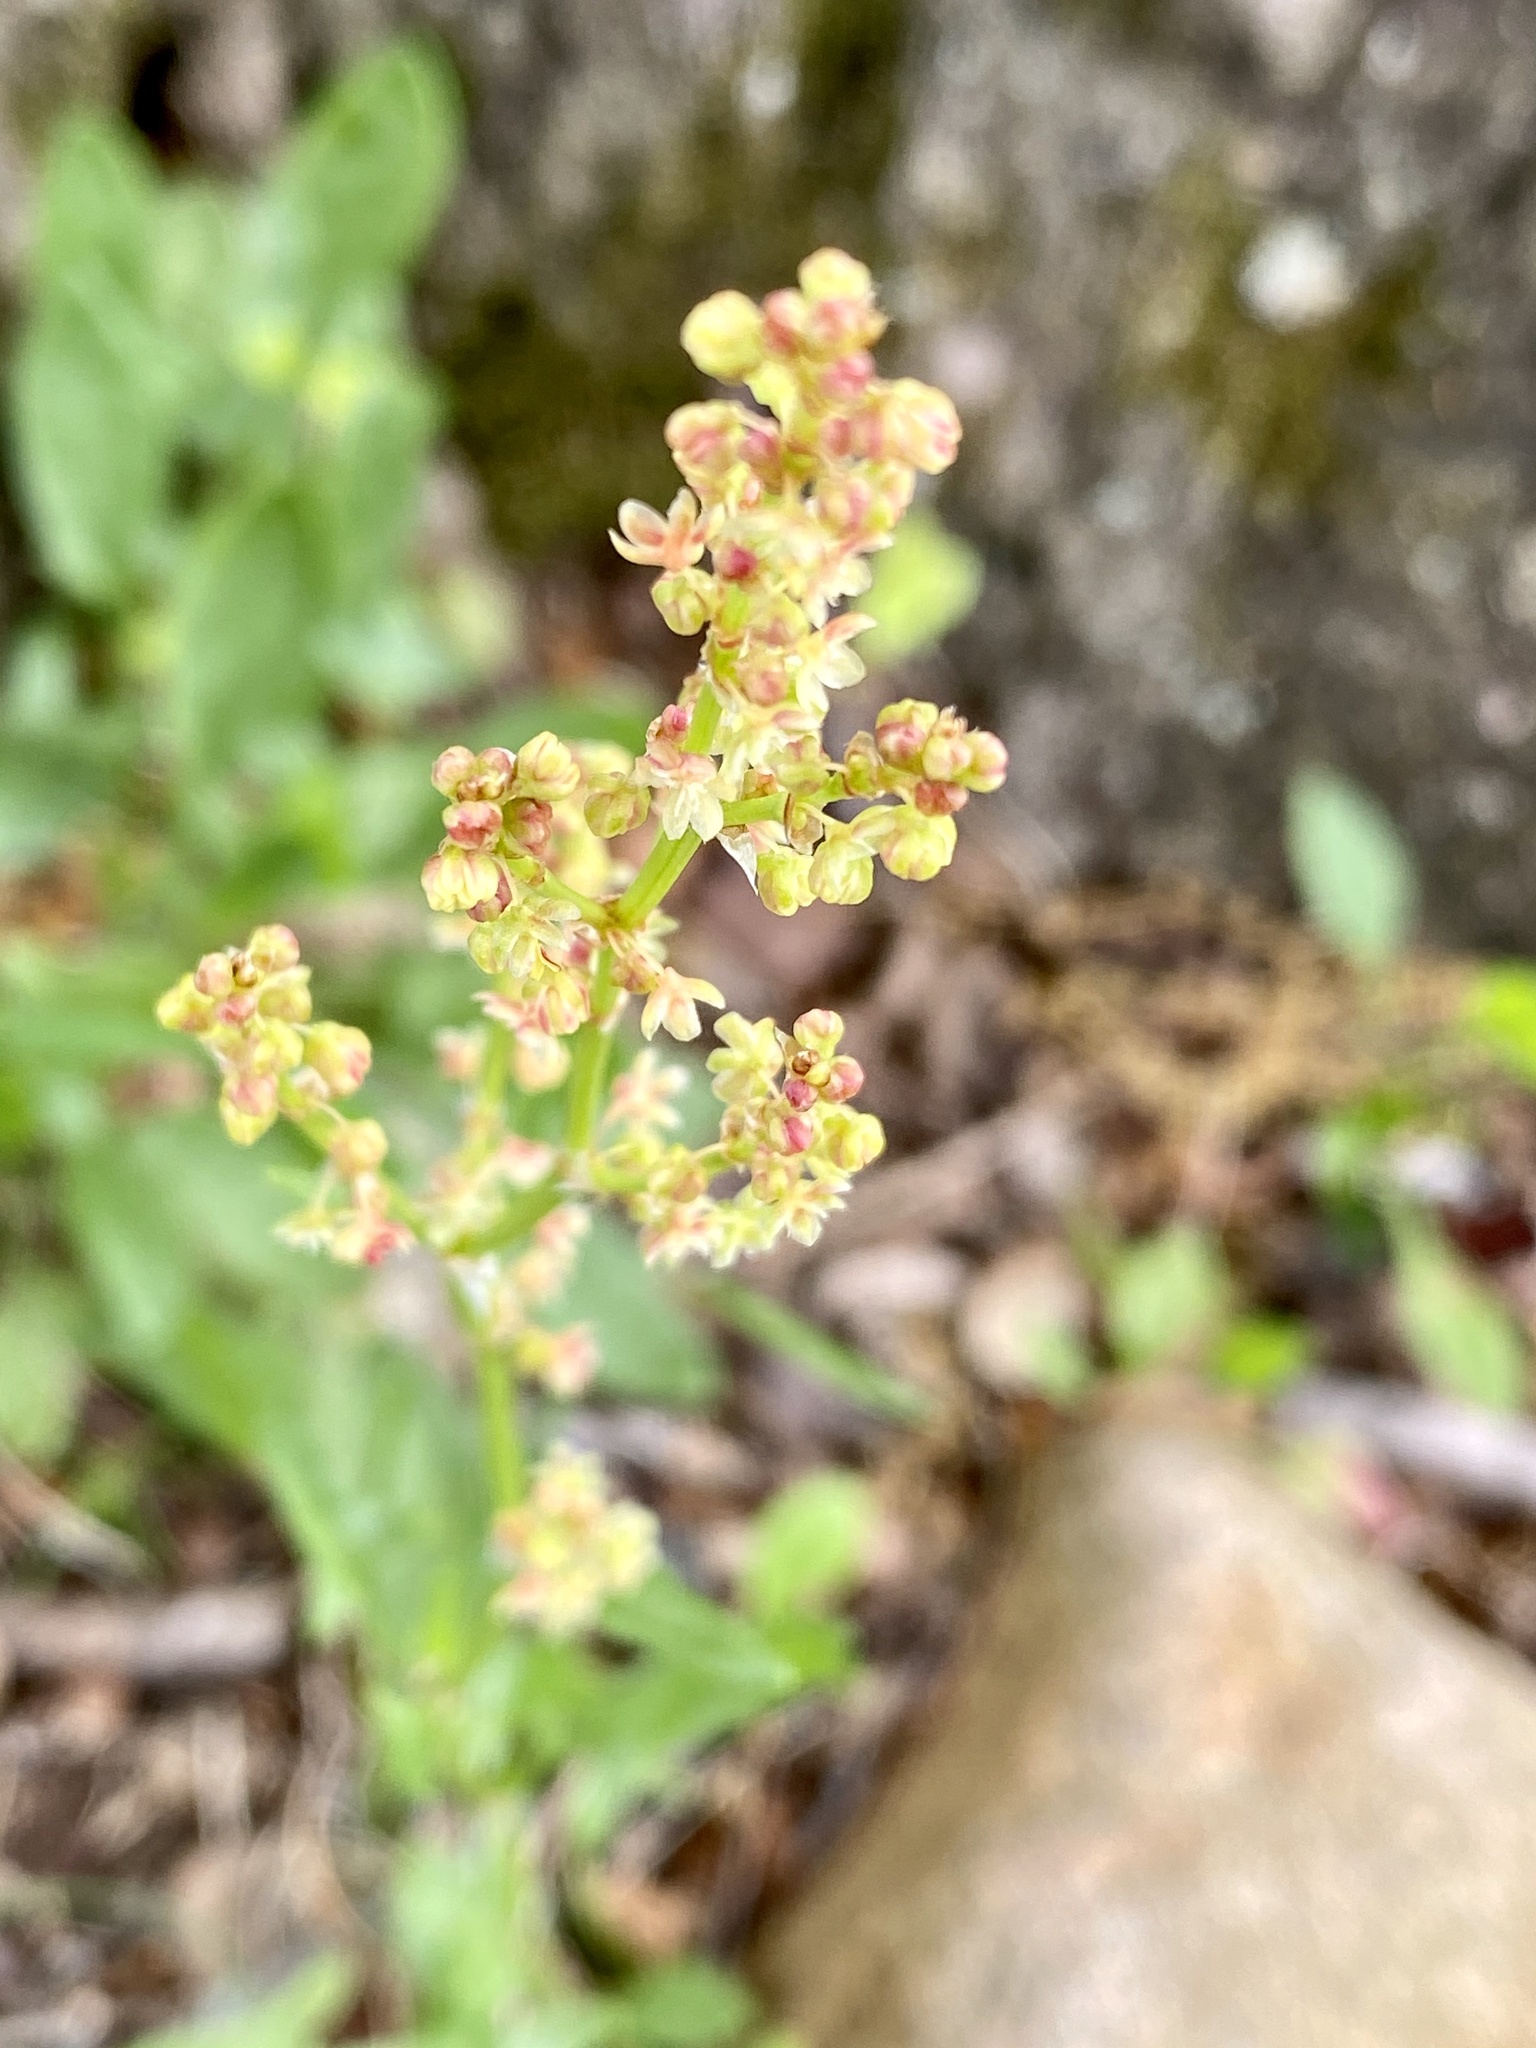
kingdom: Plantae
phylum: Tracheophyta
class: Magnoliopsida
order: Caryophyllales
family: Polygonaceae
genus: Rumex
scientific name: Rumex acetosella
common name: Common sheep sorrel
